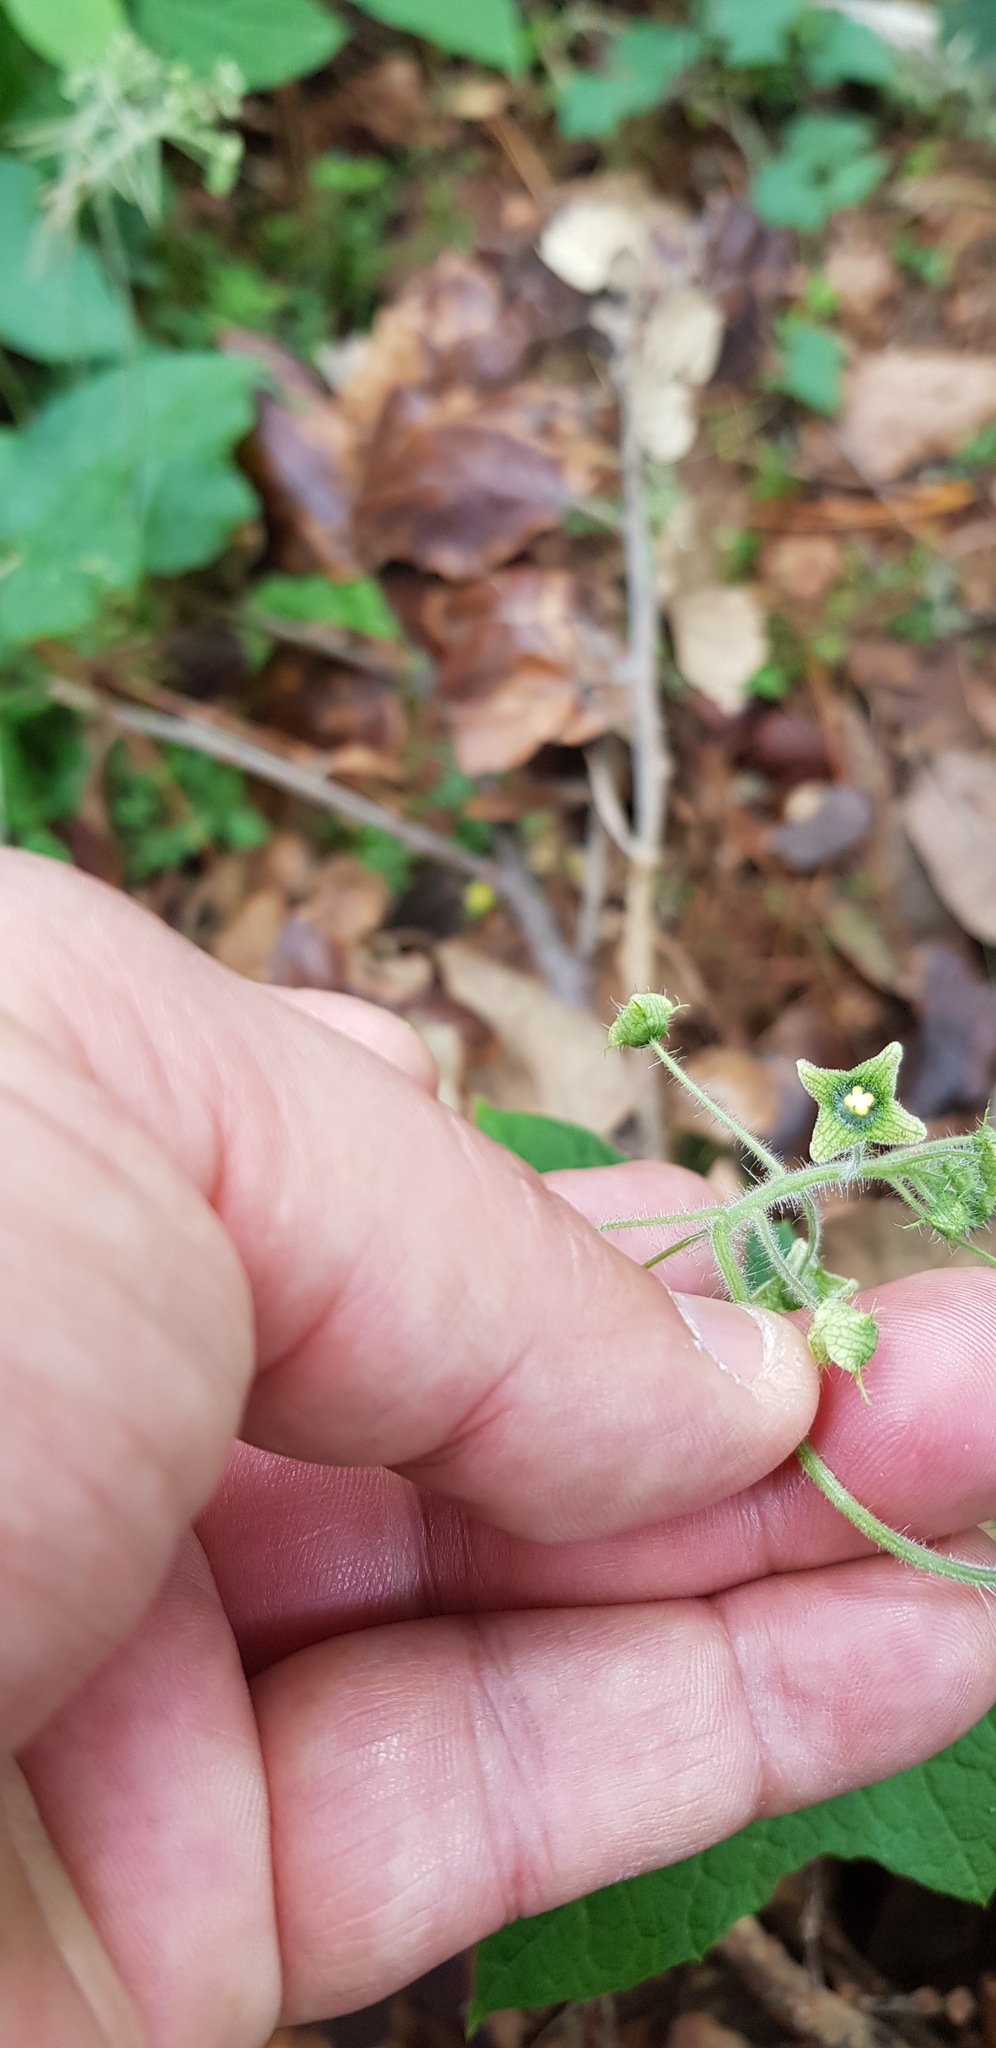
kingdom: Plantae
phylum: Tracheophyta
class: Magnoliopsida
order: Cucurbitales
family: Cucurbitaceae
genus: Microsechium
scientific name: Microsechium palmatum
